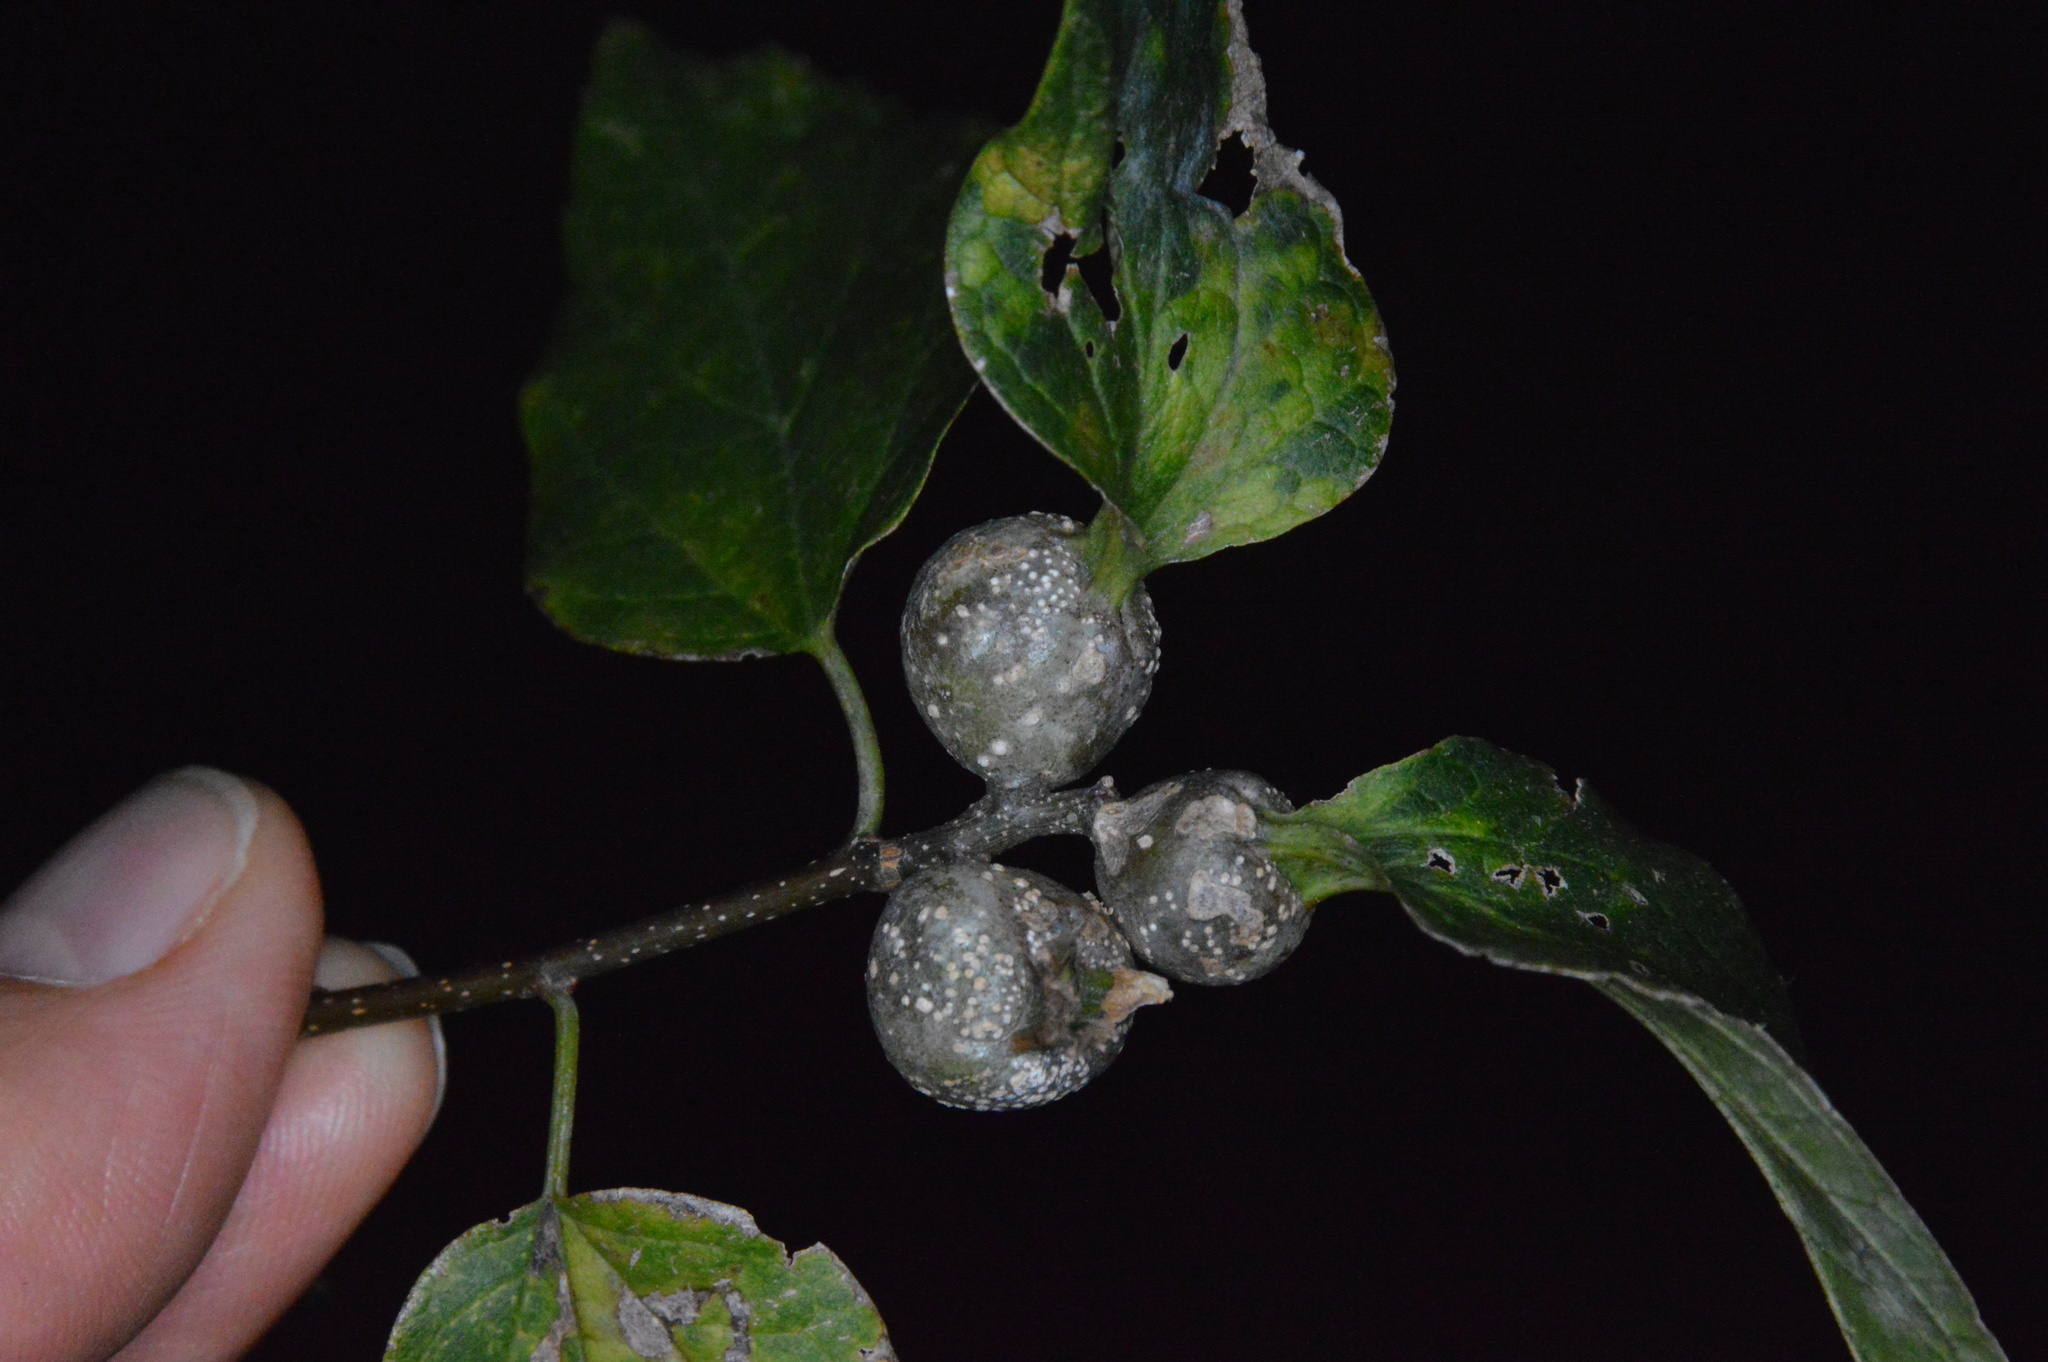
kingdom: Animalia
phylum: Arthropoda
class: Insecta
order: Hemiptera
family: Aphalaridae
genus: Pachypsylla
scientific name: Pachypsylla venusta
